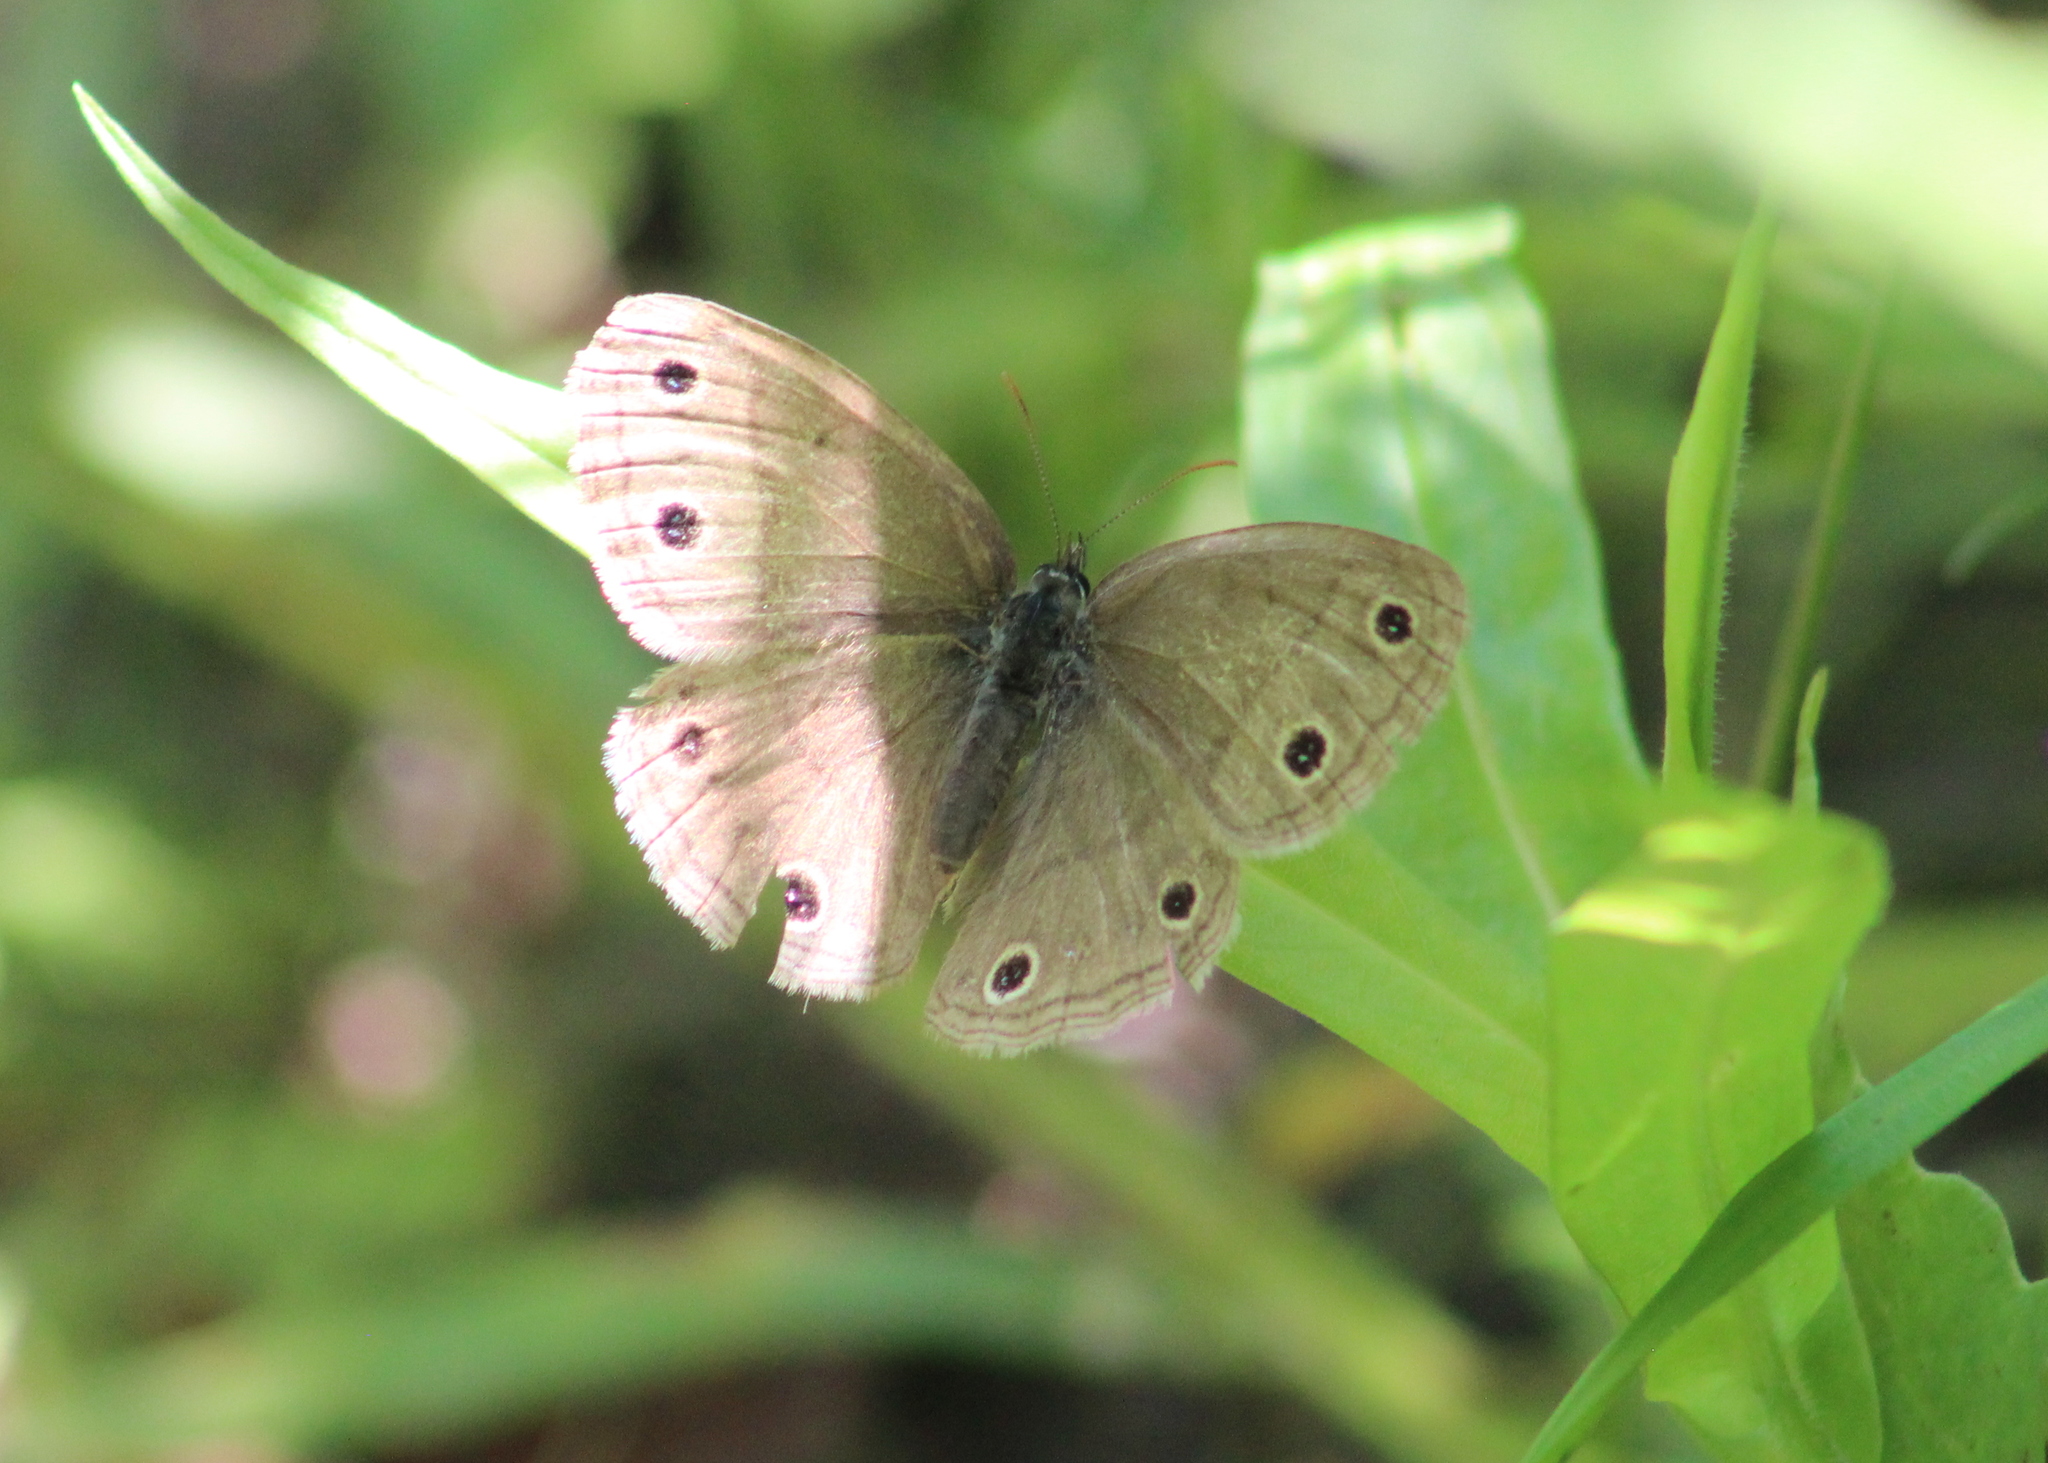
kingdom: Animalia
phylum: Arthropoda
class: Insecta
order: Lepidoptera
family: Nymphalidae
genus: Euptychia
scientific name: Euptychia cymela
